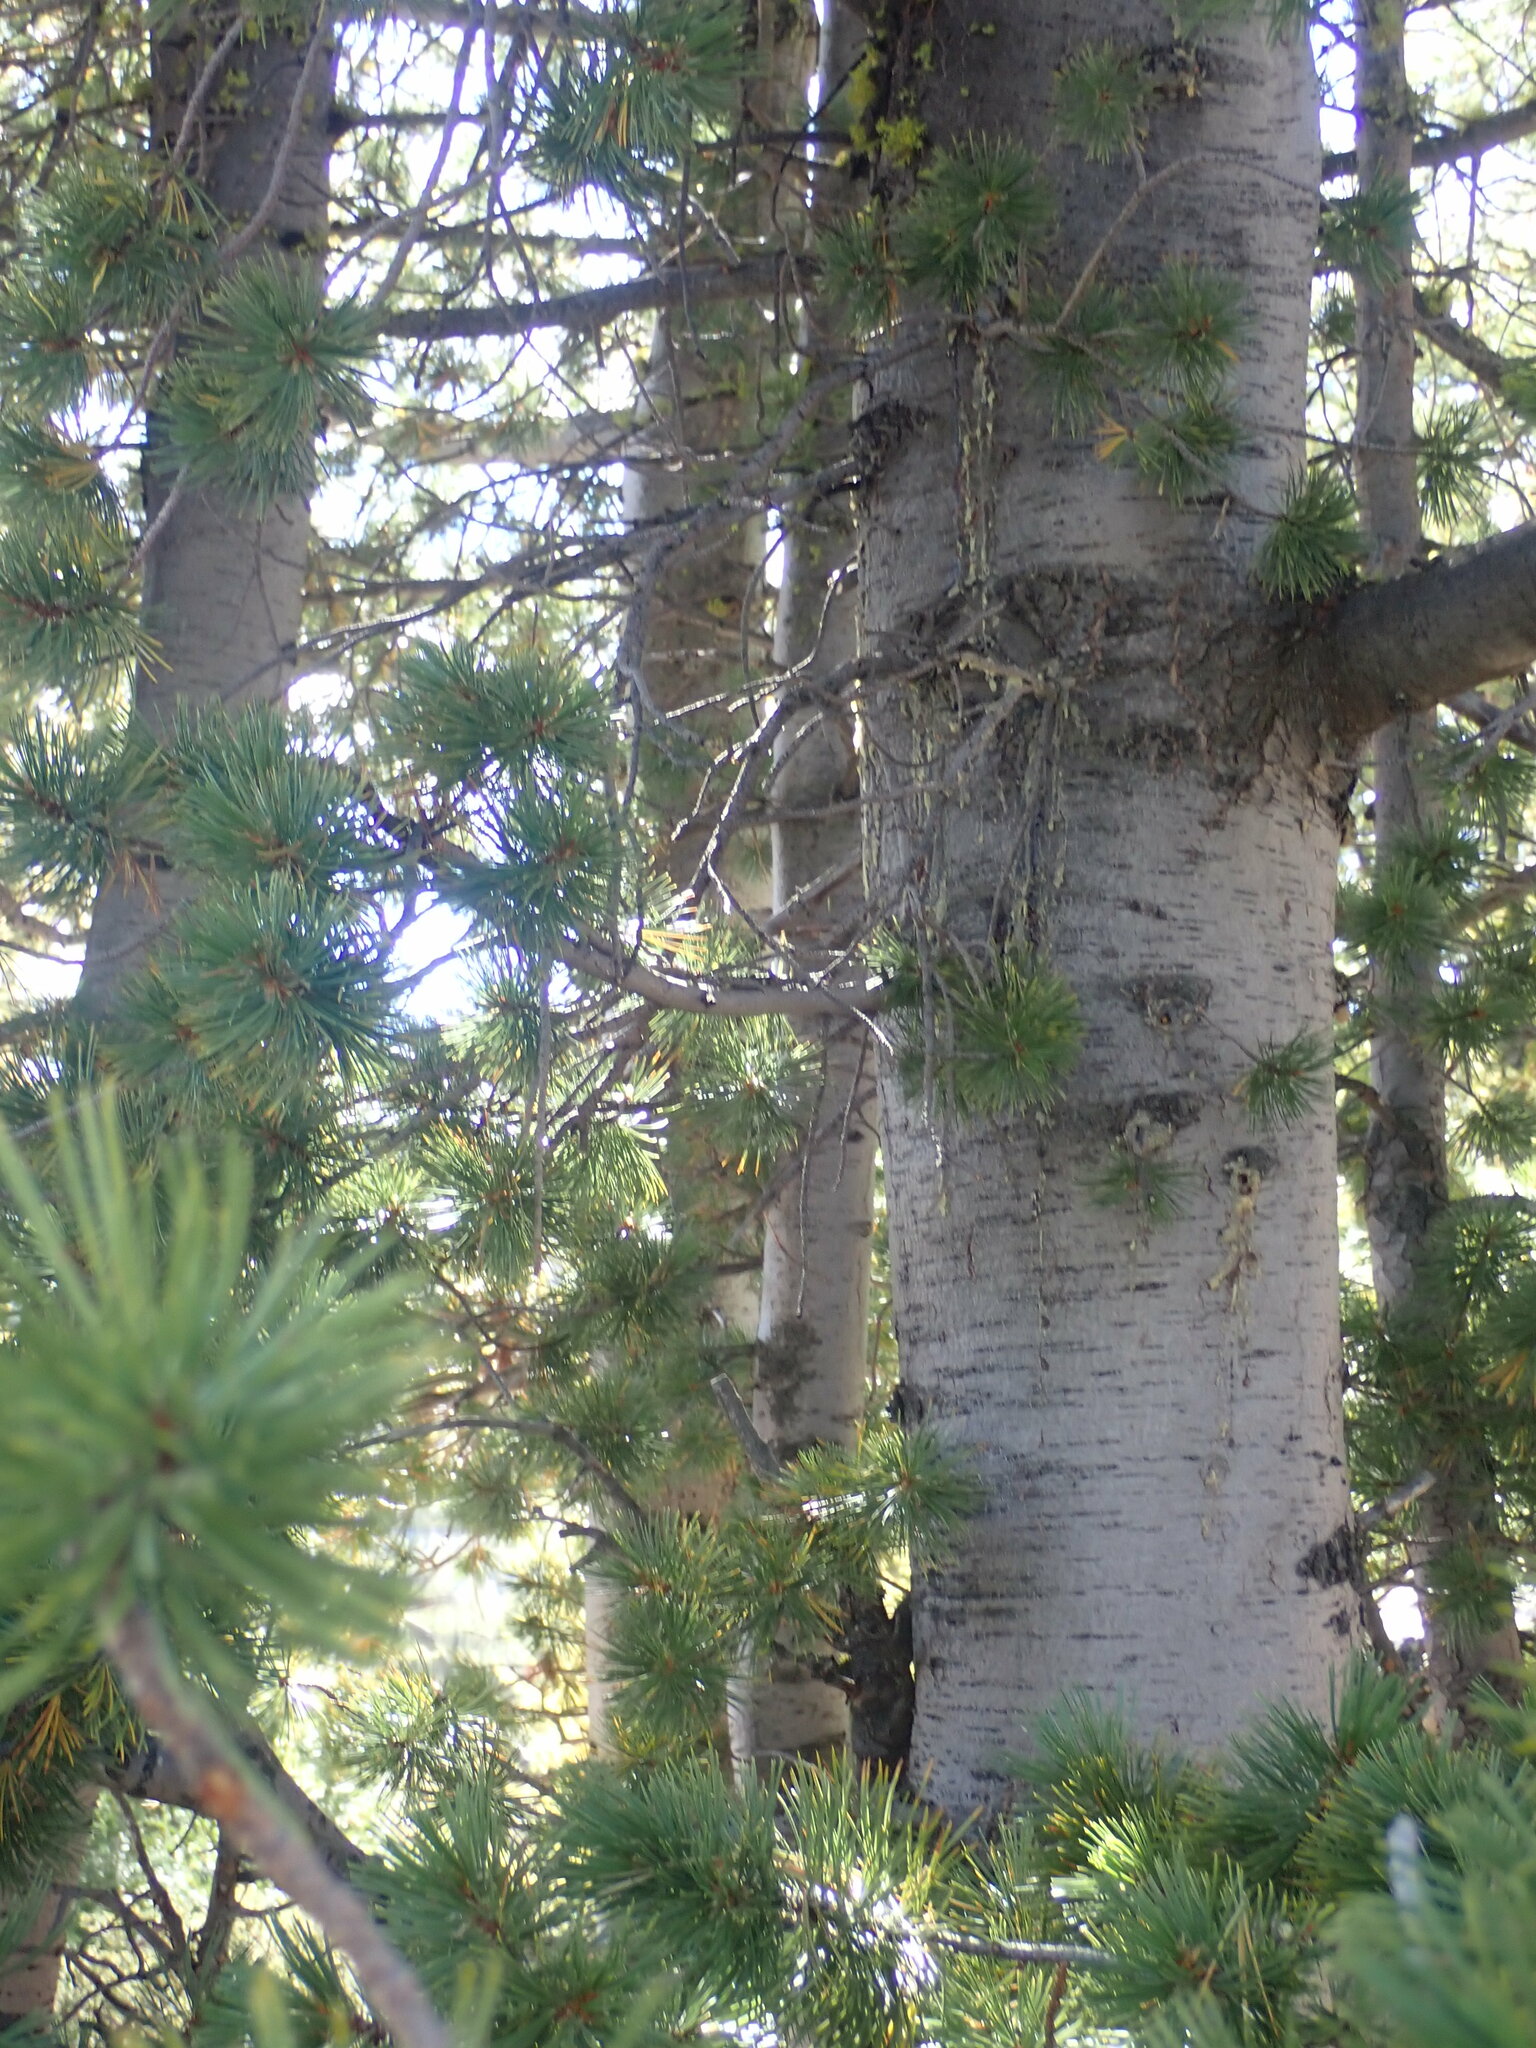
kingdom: Plantae
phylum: Tracheophyta
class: Pinopsida
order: Pinales
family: Pinaceae
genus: Pinus
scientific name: Pinus albicaulis
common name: Whitebark pine
